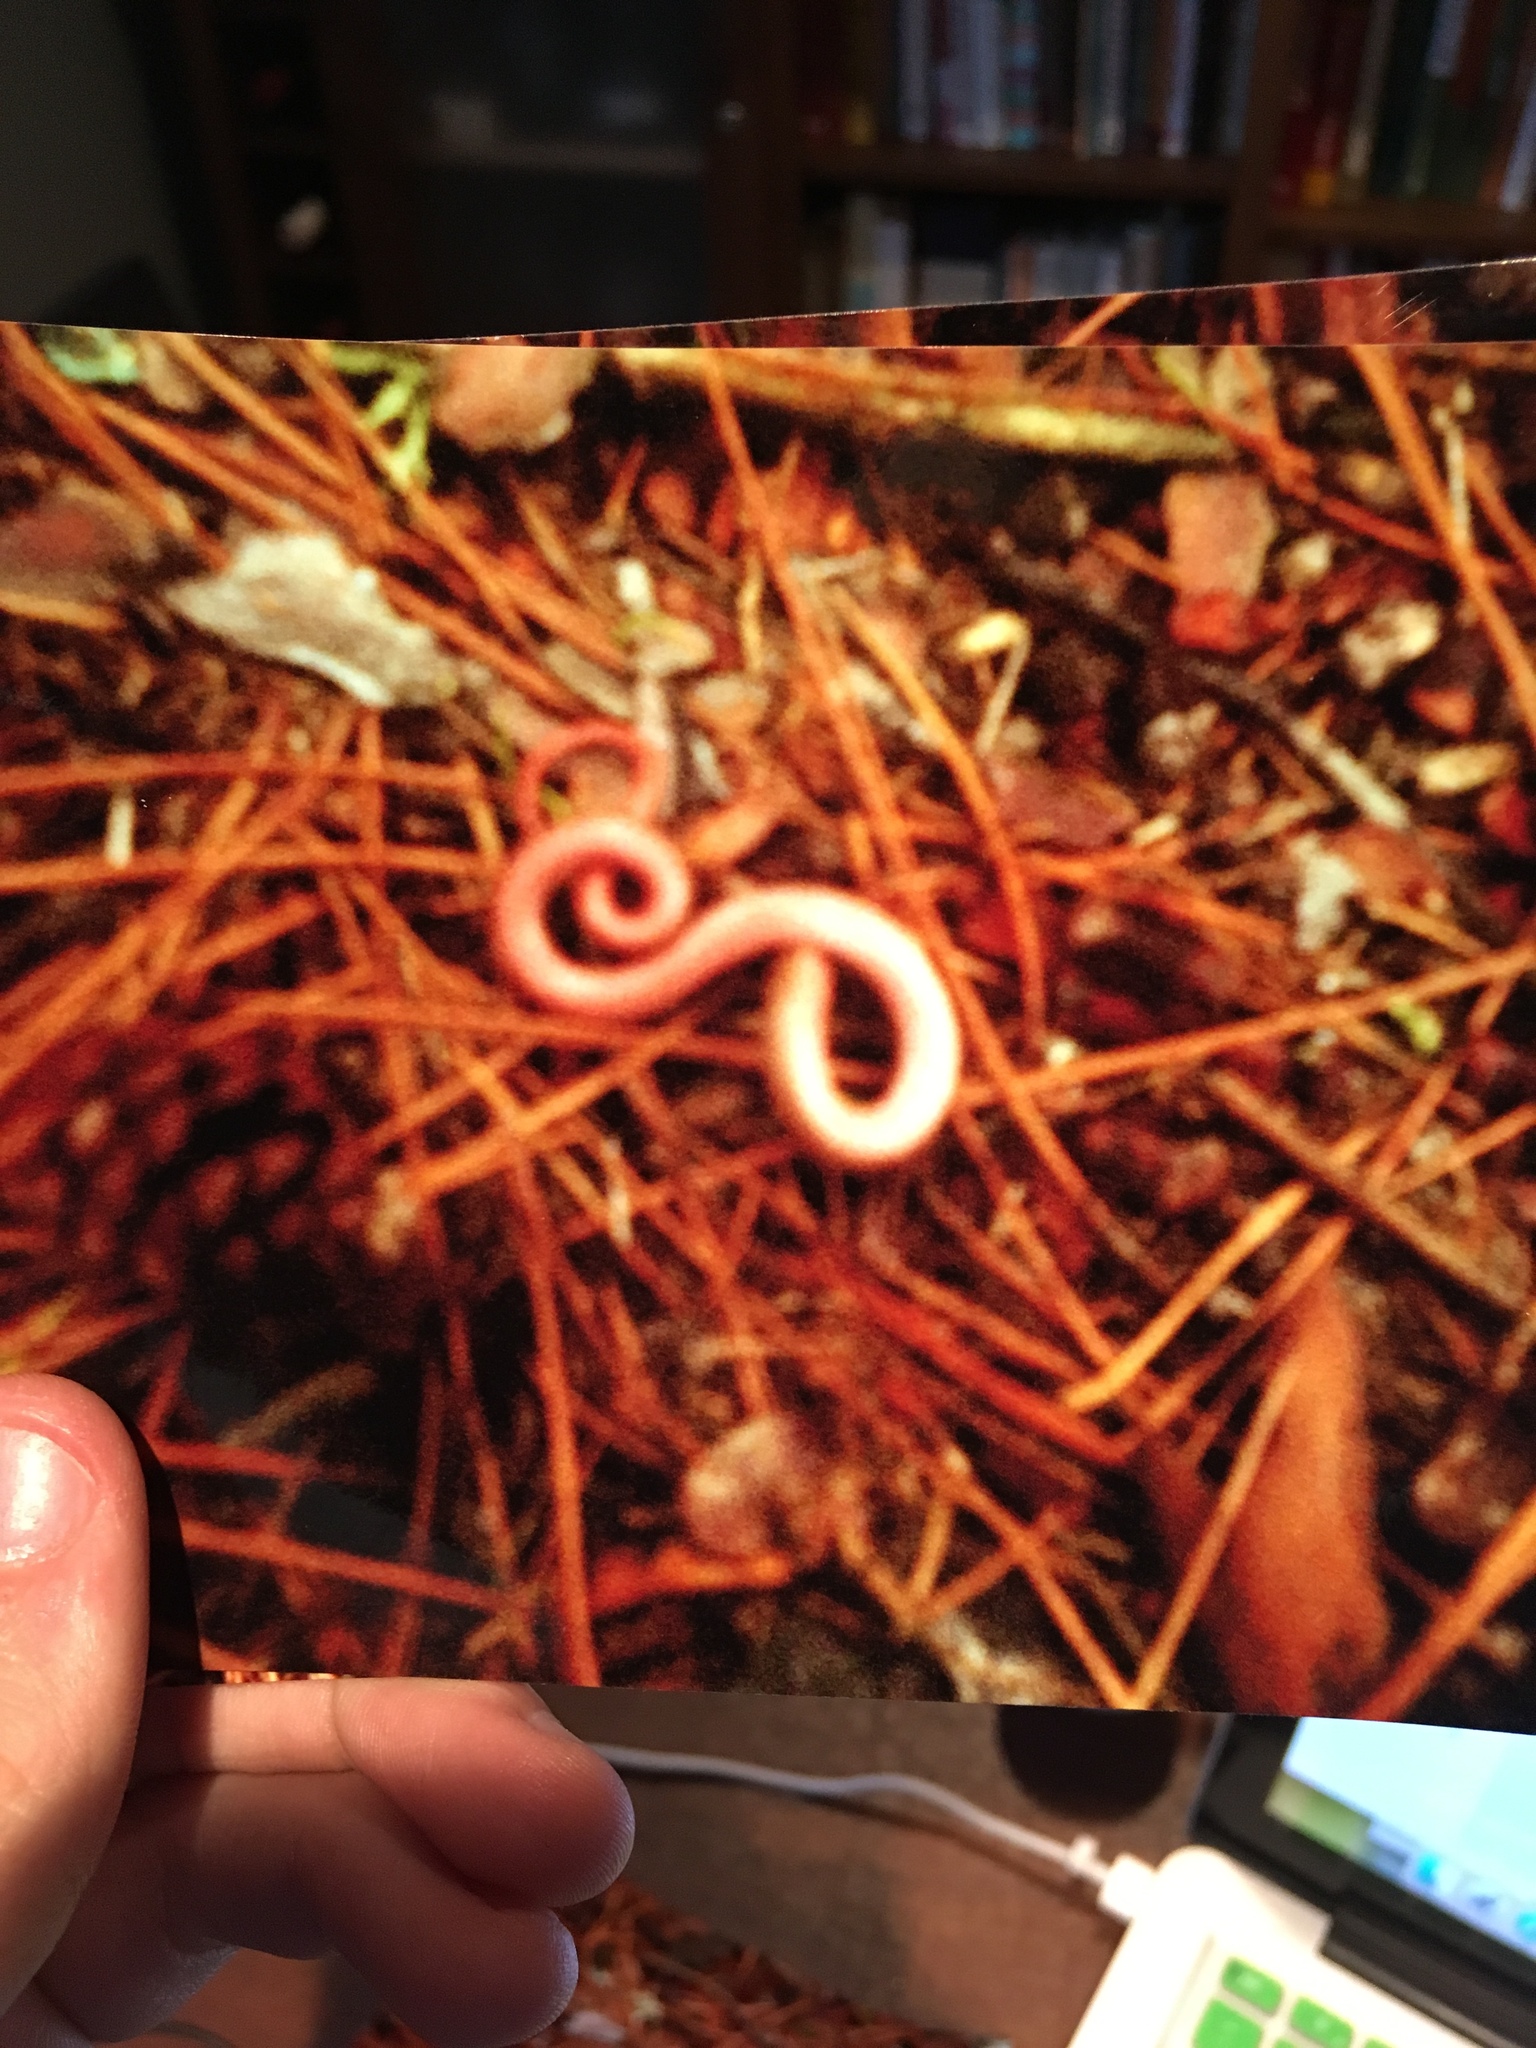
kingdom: Animalia
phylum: Chordata
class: Squamata
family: Colubridae
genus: Storeria
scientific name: Storeria occipitomaculata
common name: Redbelly snake
